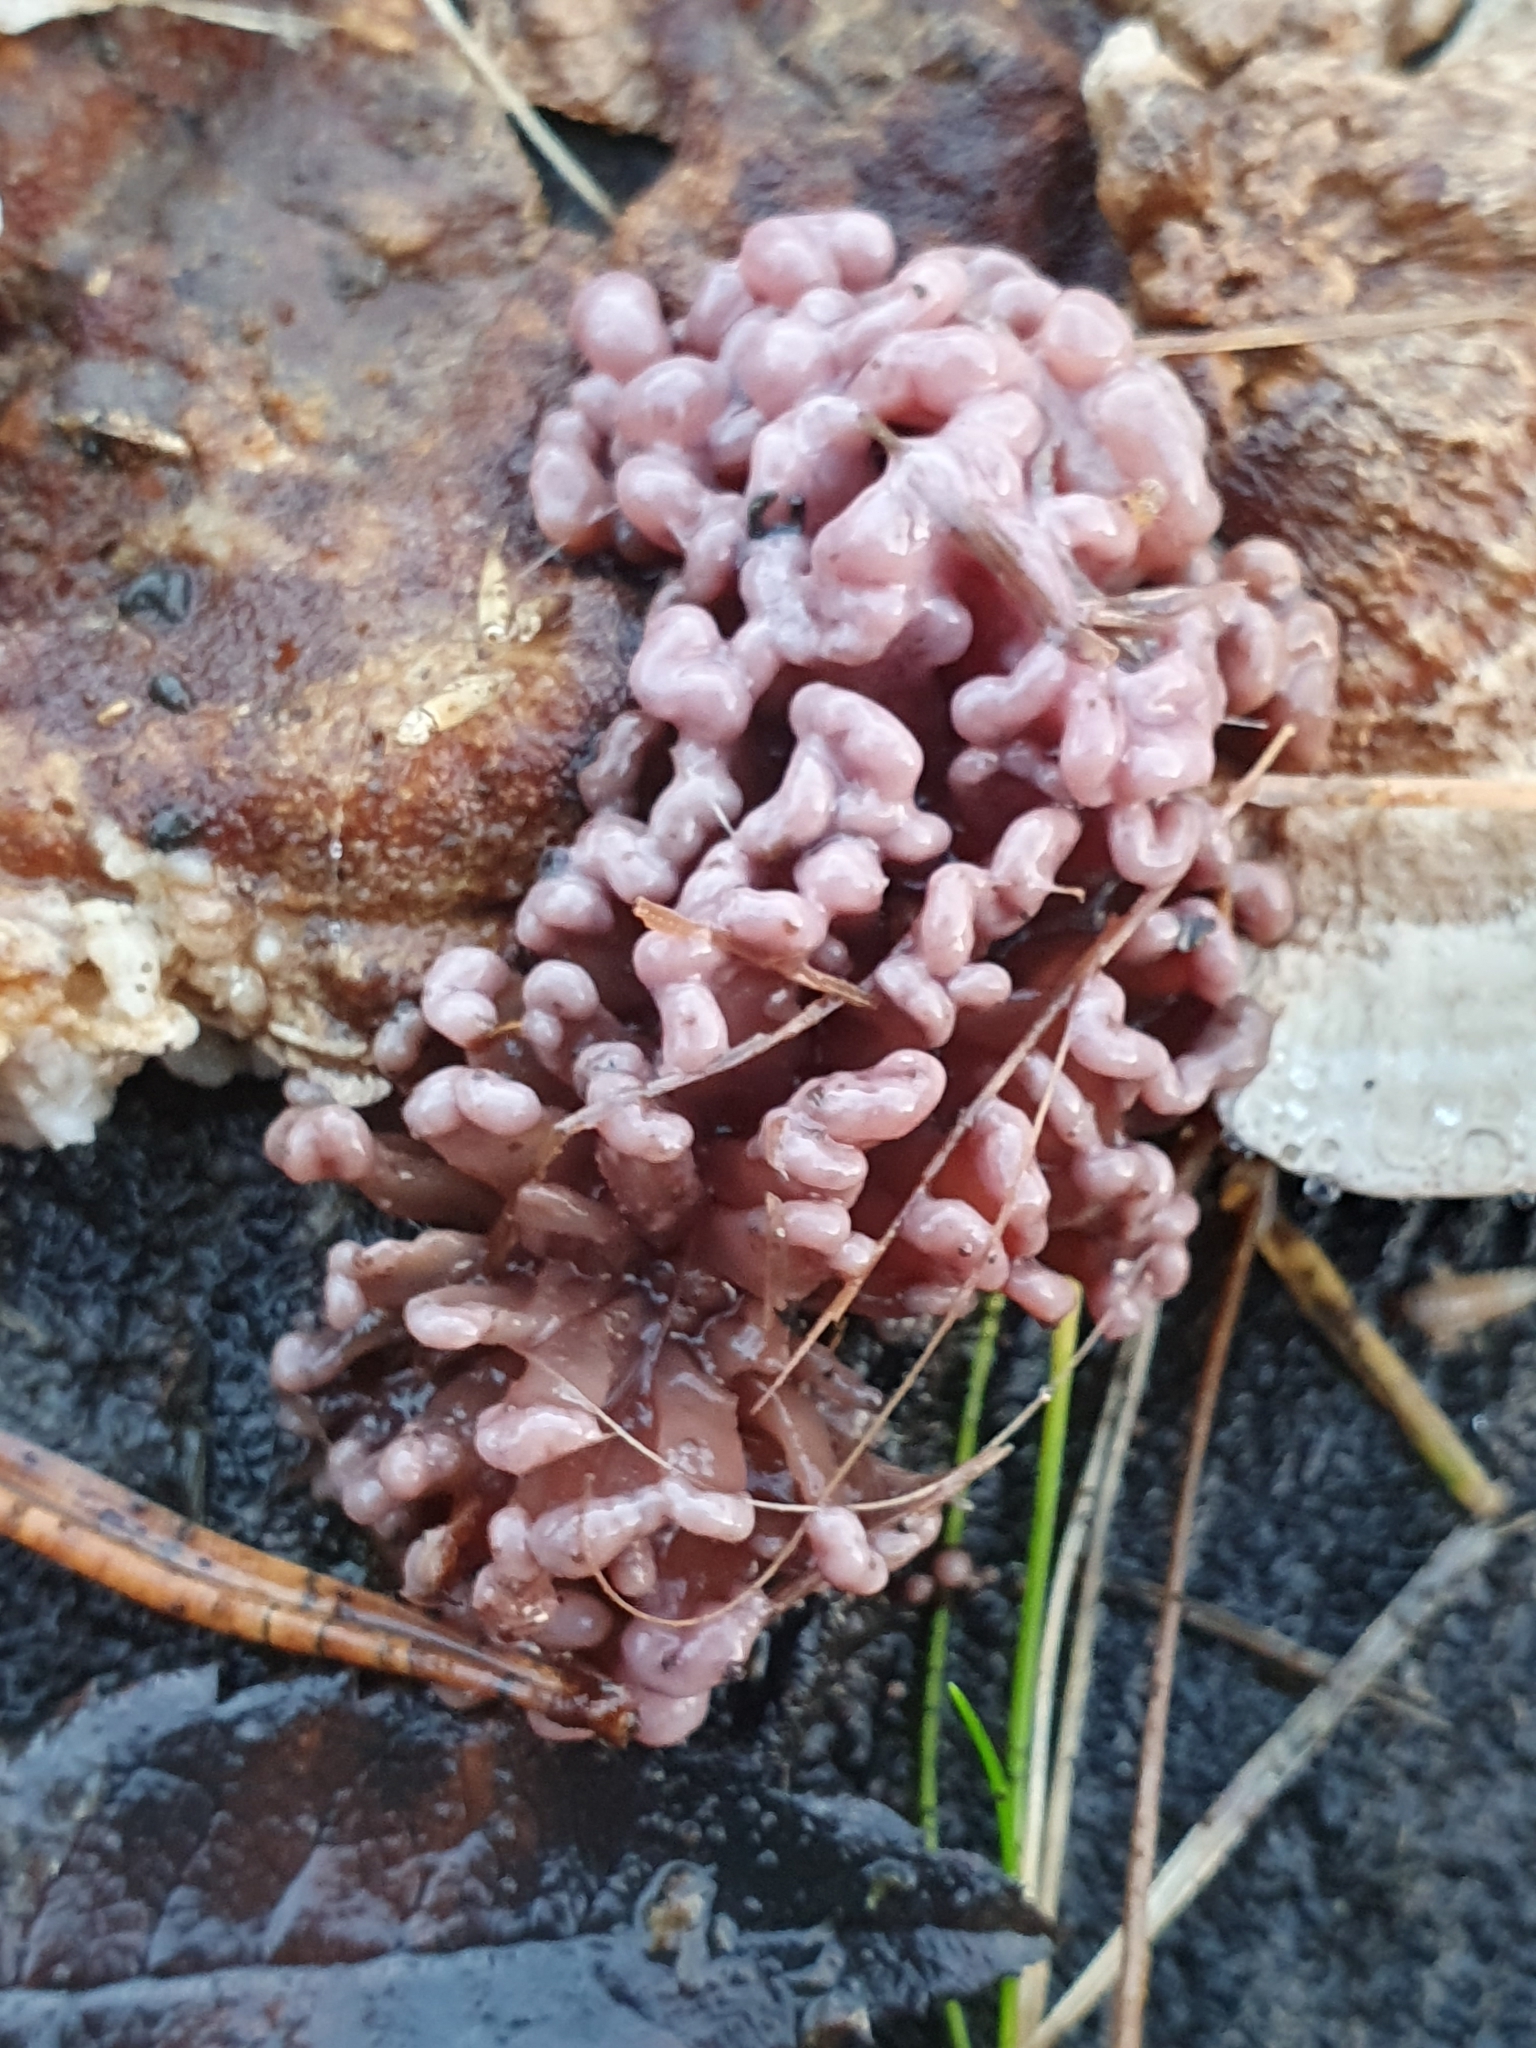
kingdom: Fungi
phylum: Ascomycota
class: Leotiomycetes
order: Helotiales
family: Gelatinodiscaceae
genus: Ascocoryne
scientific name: Ascocoryne sarcoides
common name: Purple jellydisc
